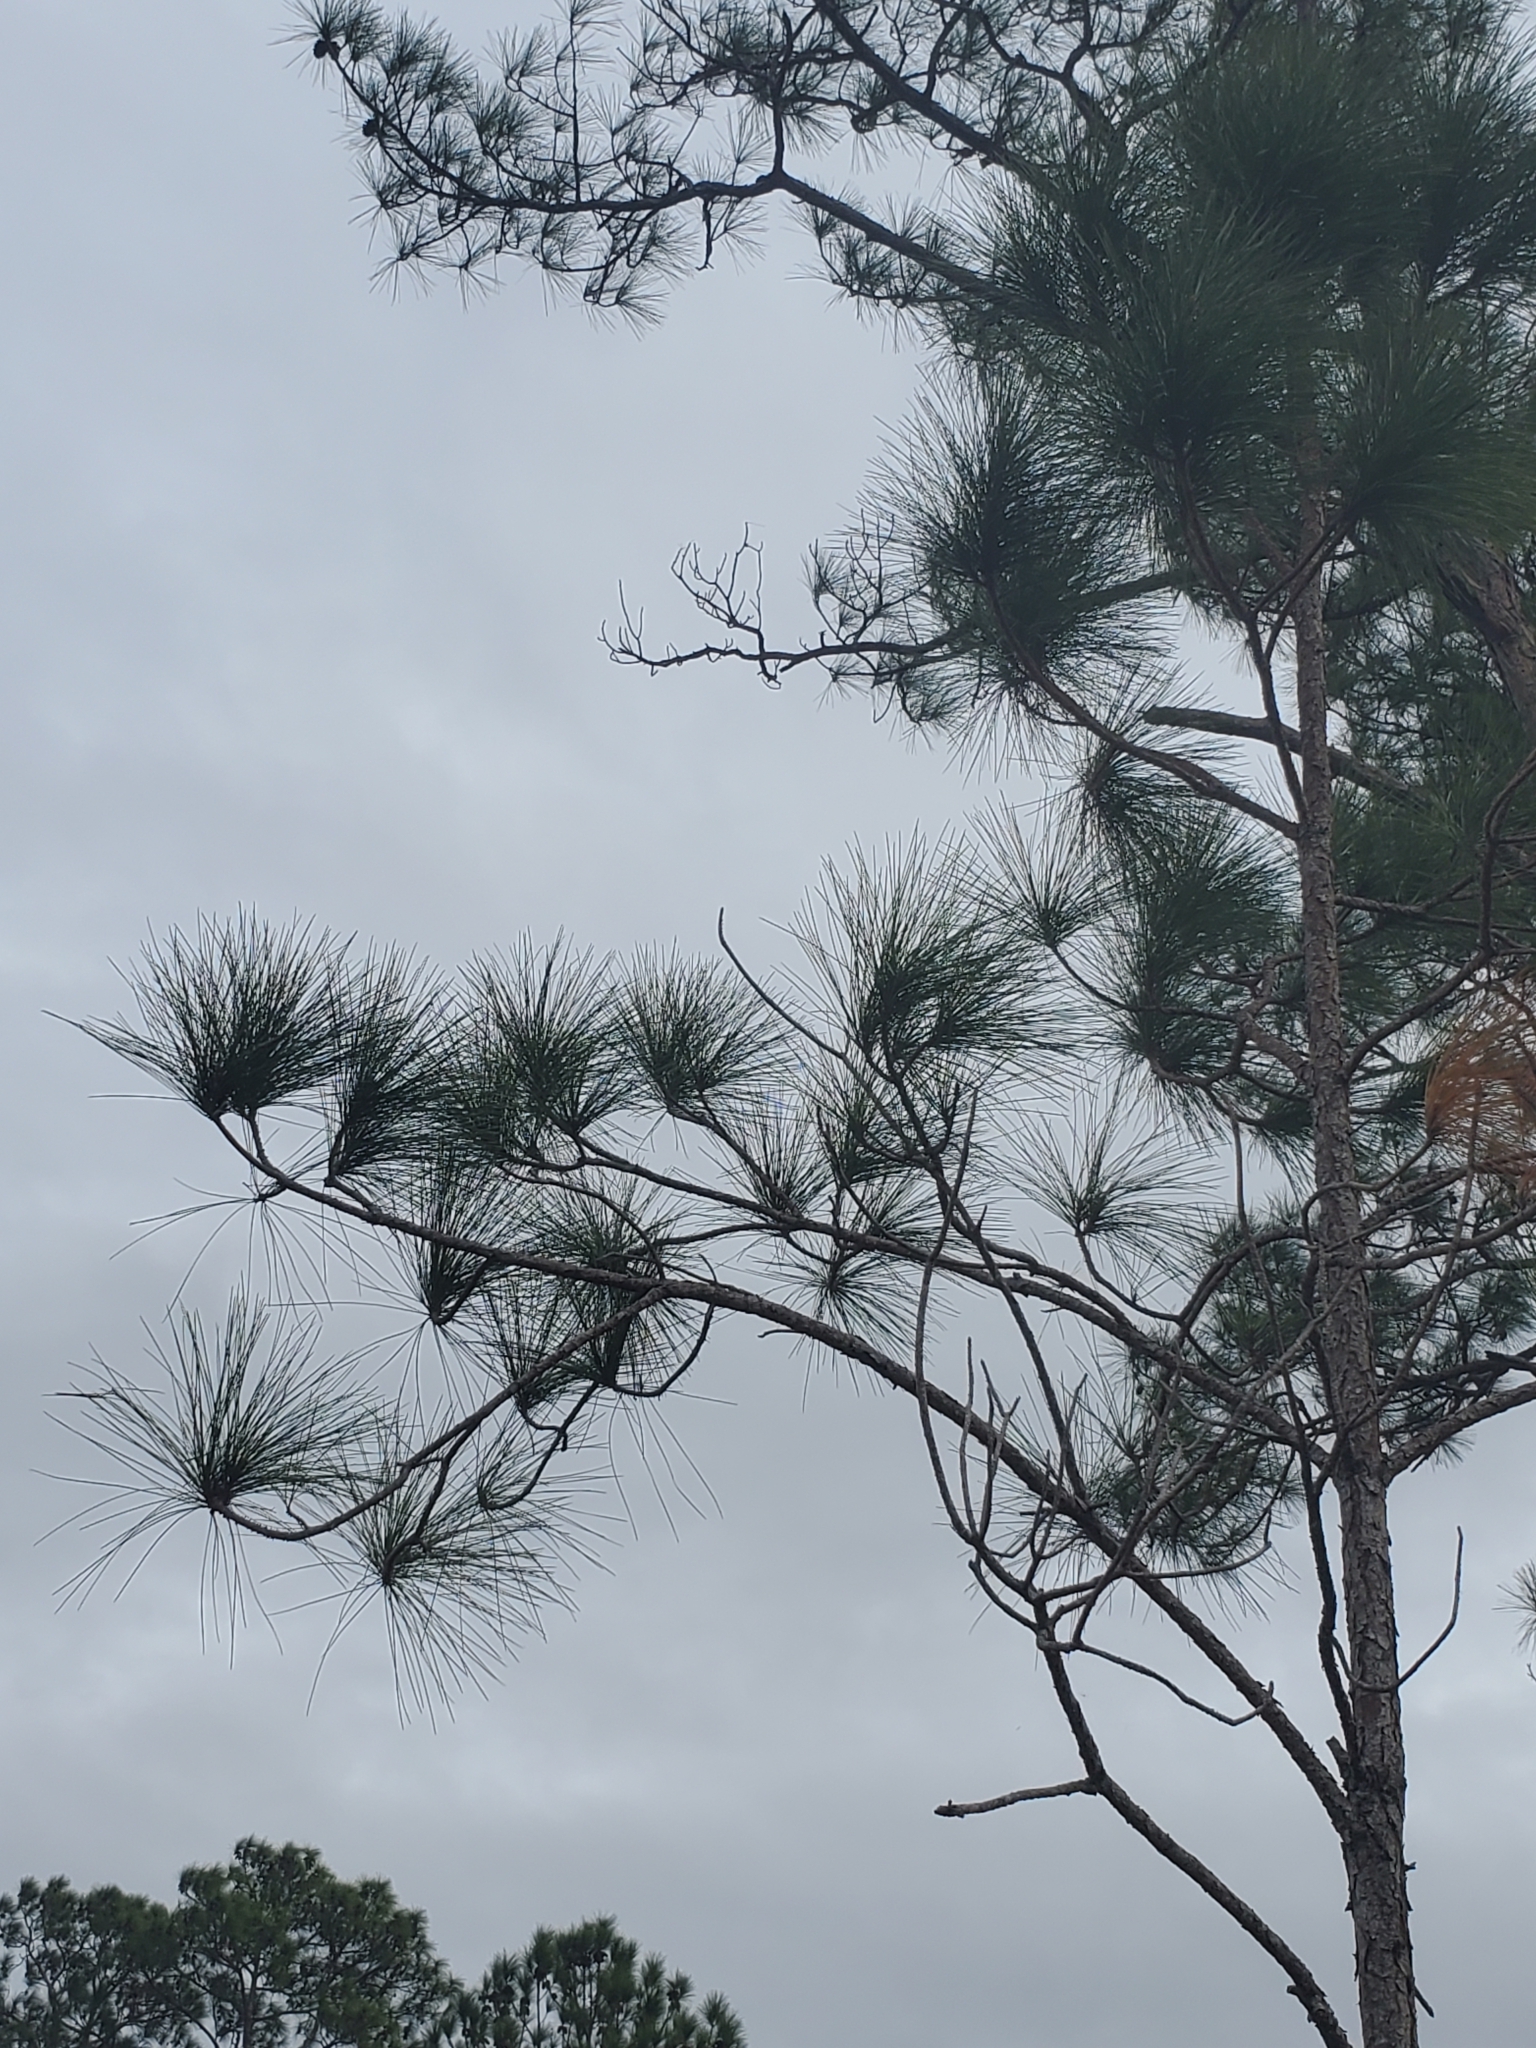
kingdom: Plantae
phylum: Tracheophyta
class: Pinopsida
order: Pinales
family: Pinaceae
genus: Pinus
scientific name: Pinus elliottii
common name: Slash pine
